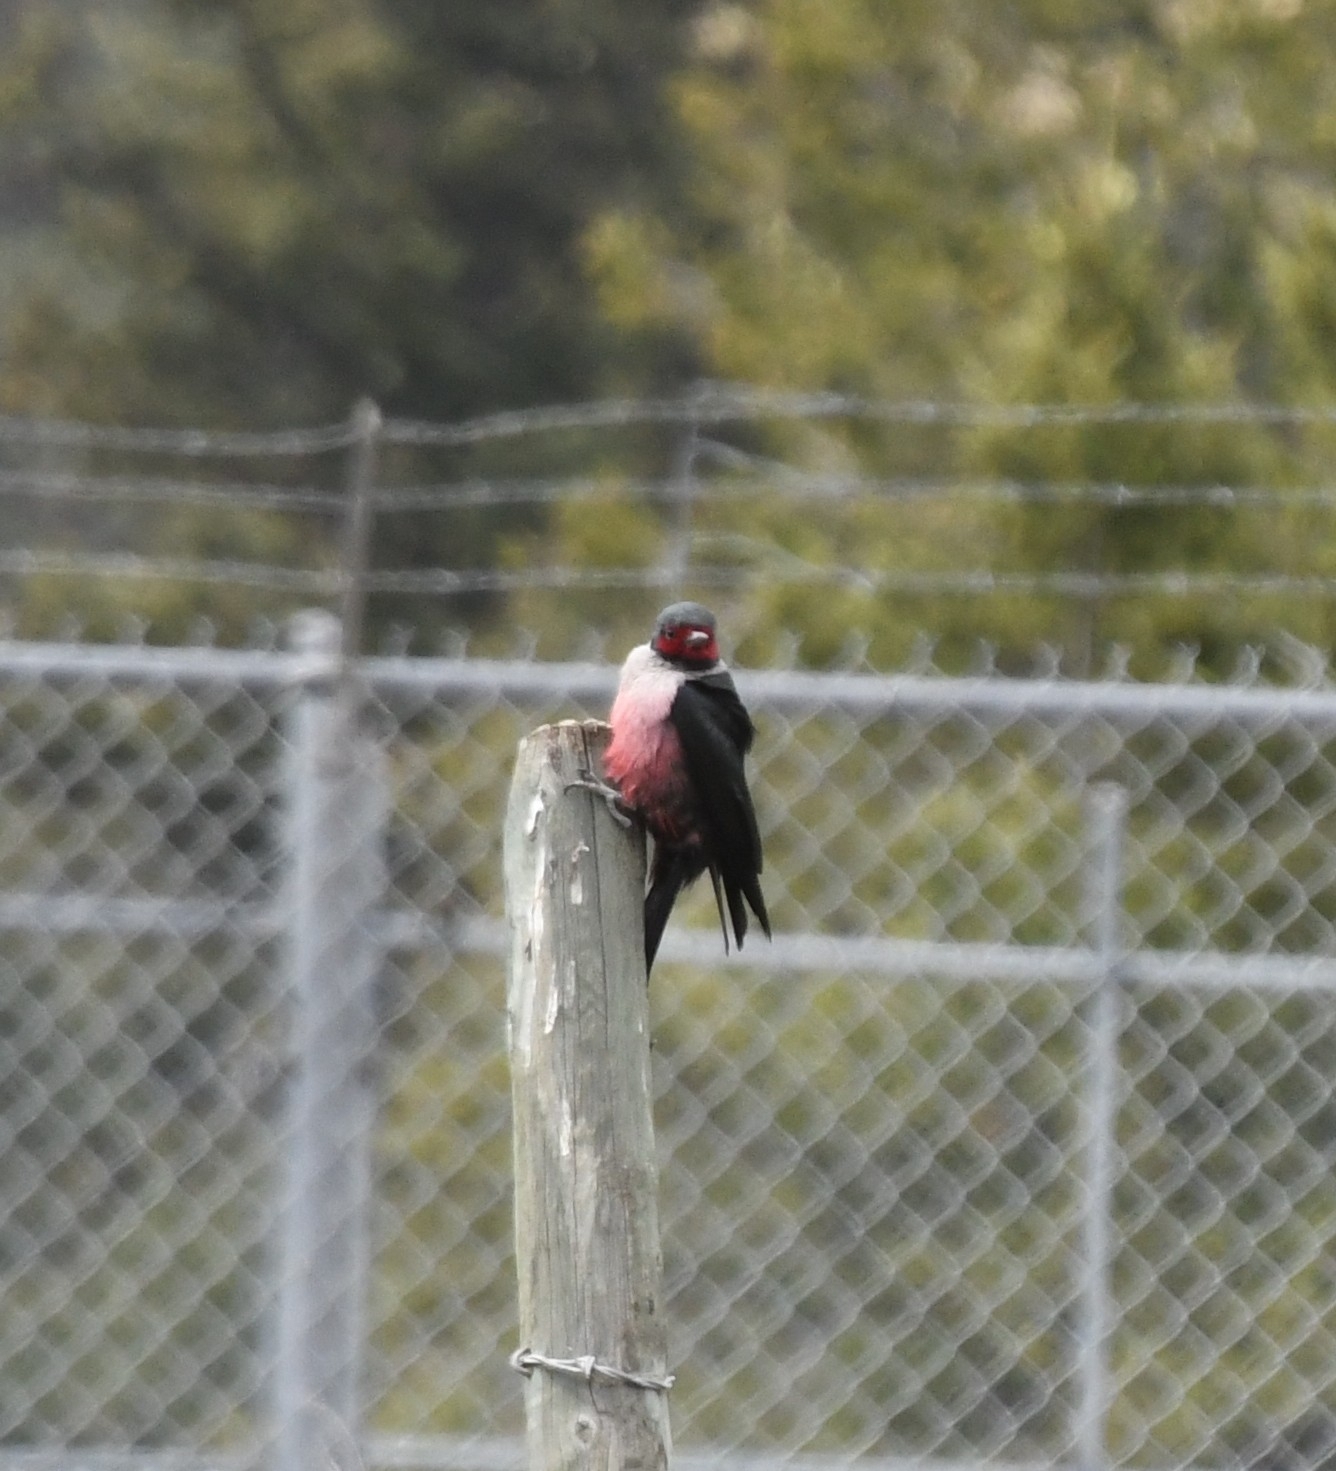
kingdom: Animalia
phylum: Chordata
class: Aves
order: Piciformes
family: Picidae
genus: Melanerpes
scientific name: Melanerpes lewis
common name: Lewis's woodpecker
